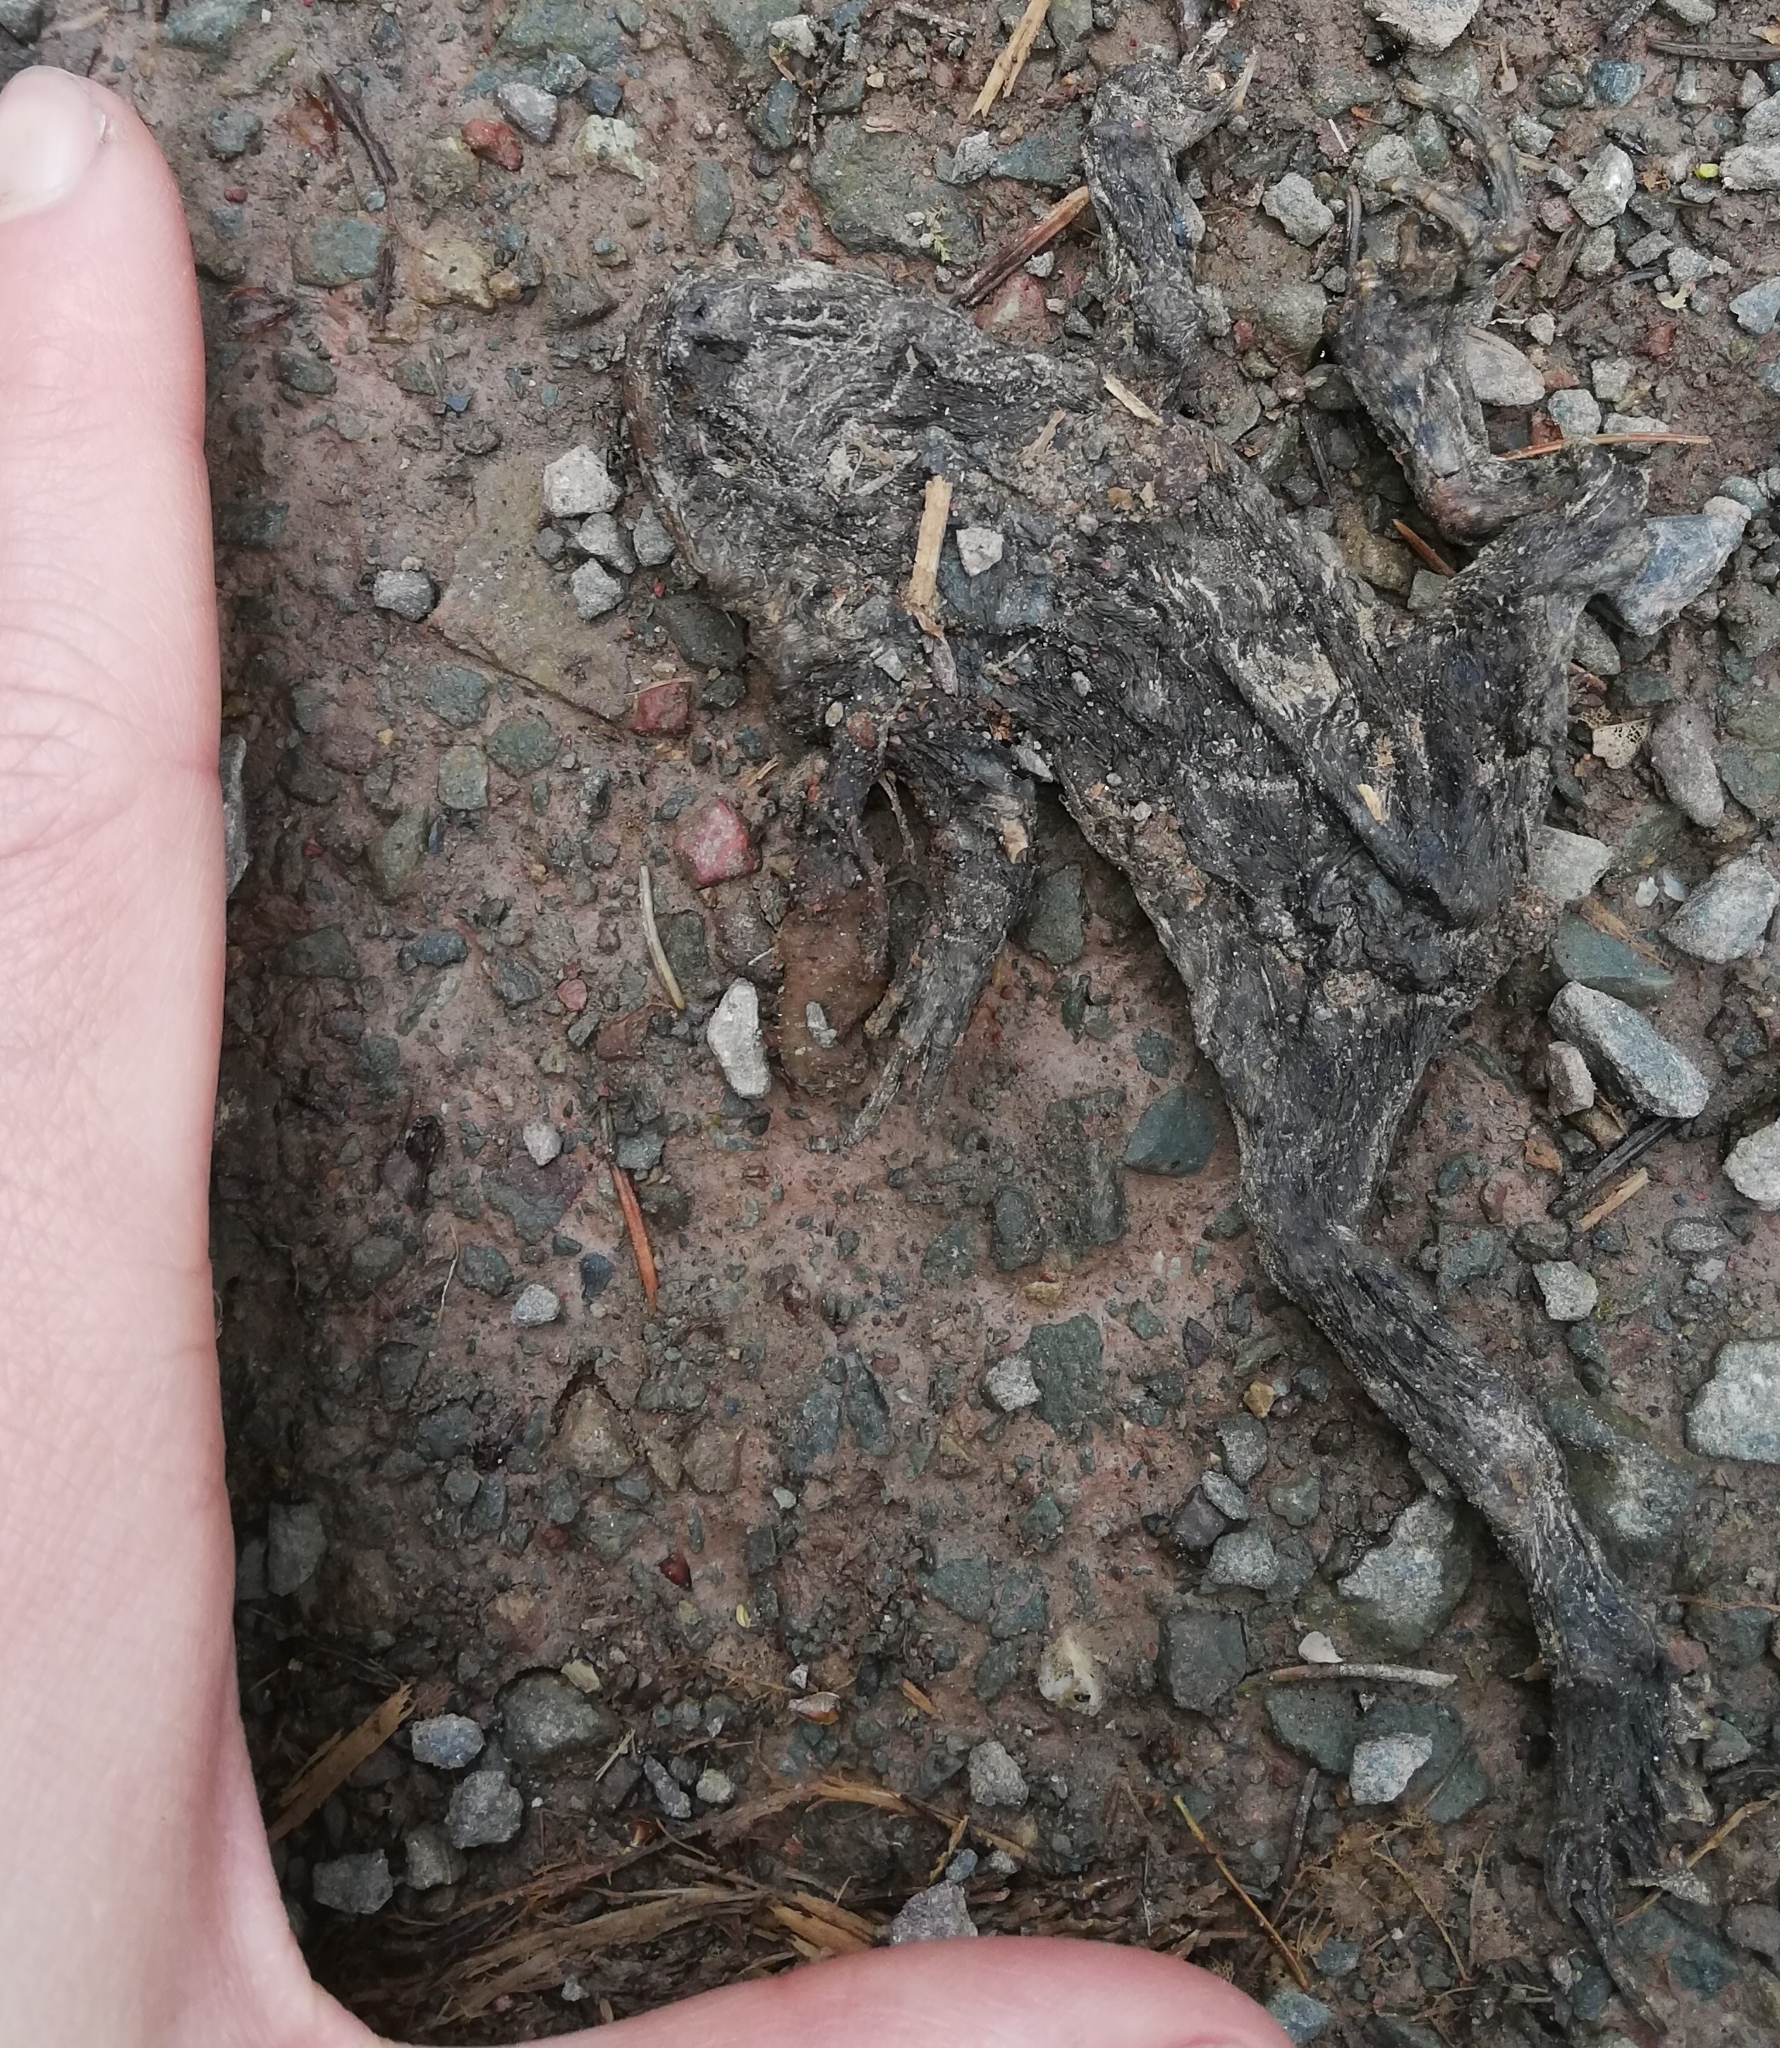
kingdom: Animalia
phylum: Chordata
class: Amphibia
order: Anura
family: Bufonidae
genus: Bufo
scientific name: Bufo bufo
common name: Common toad
